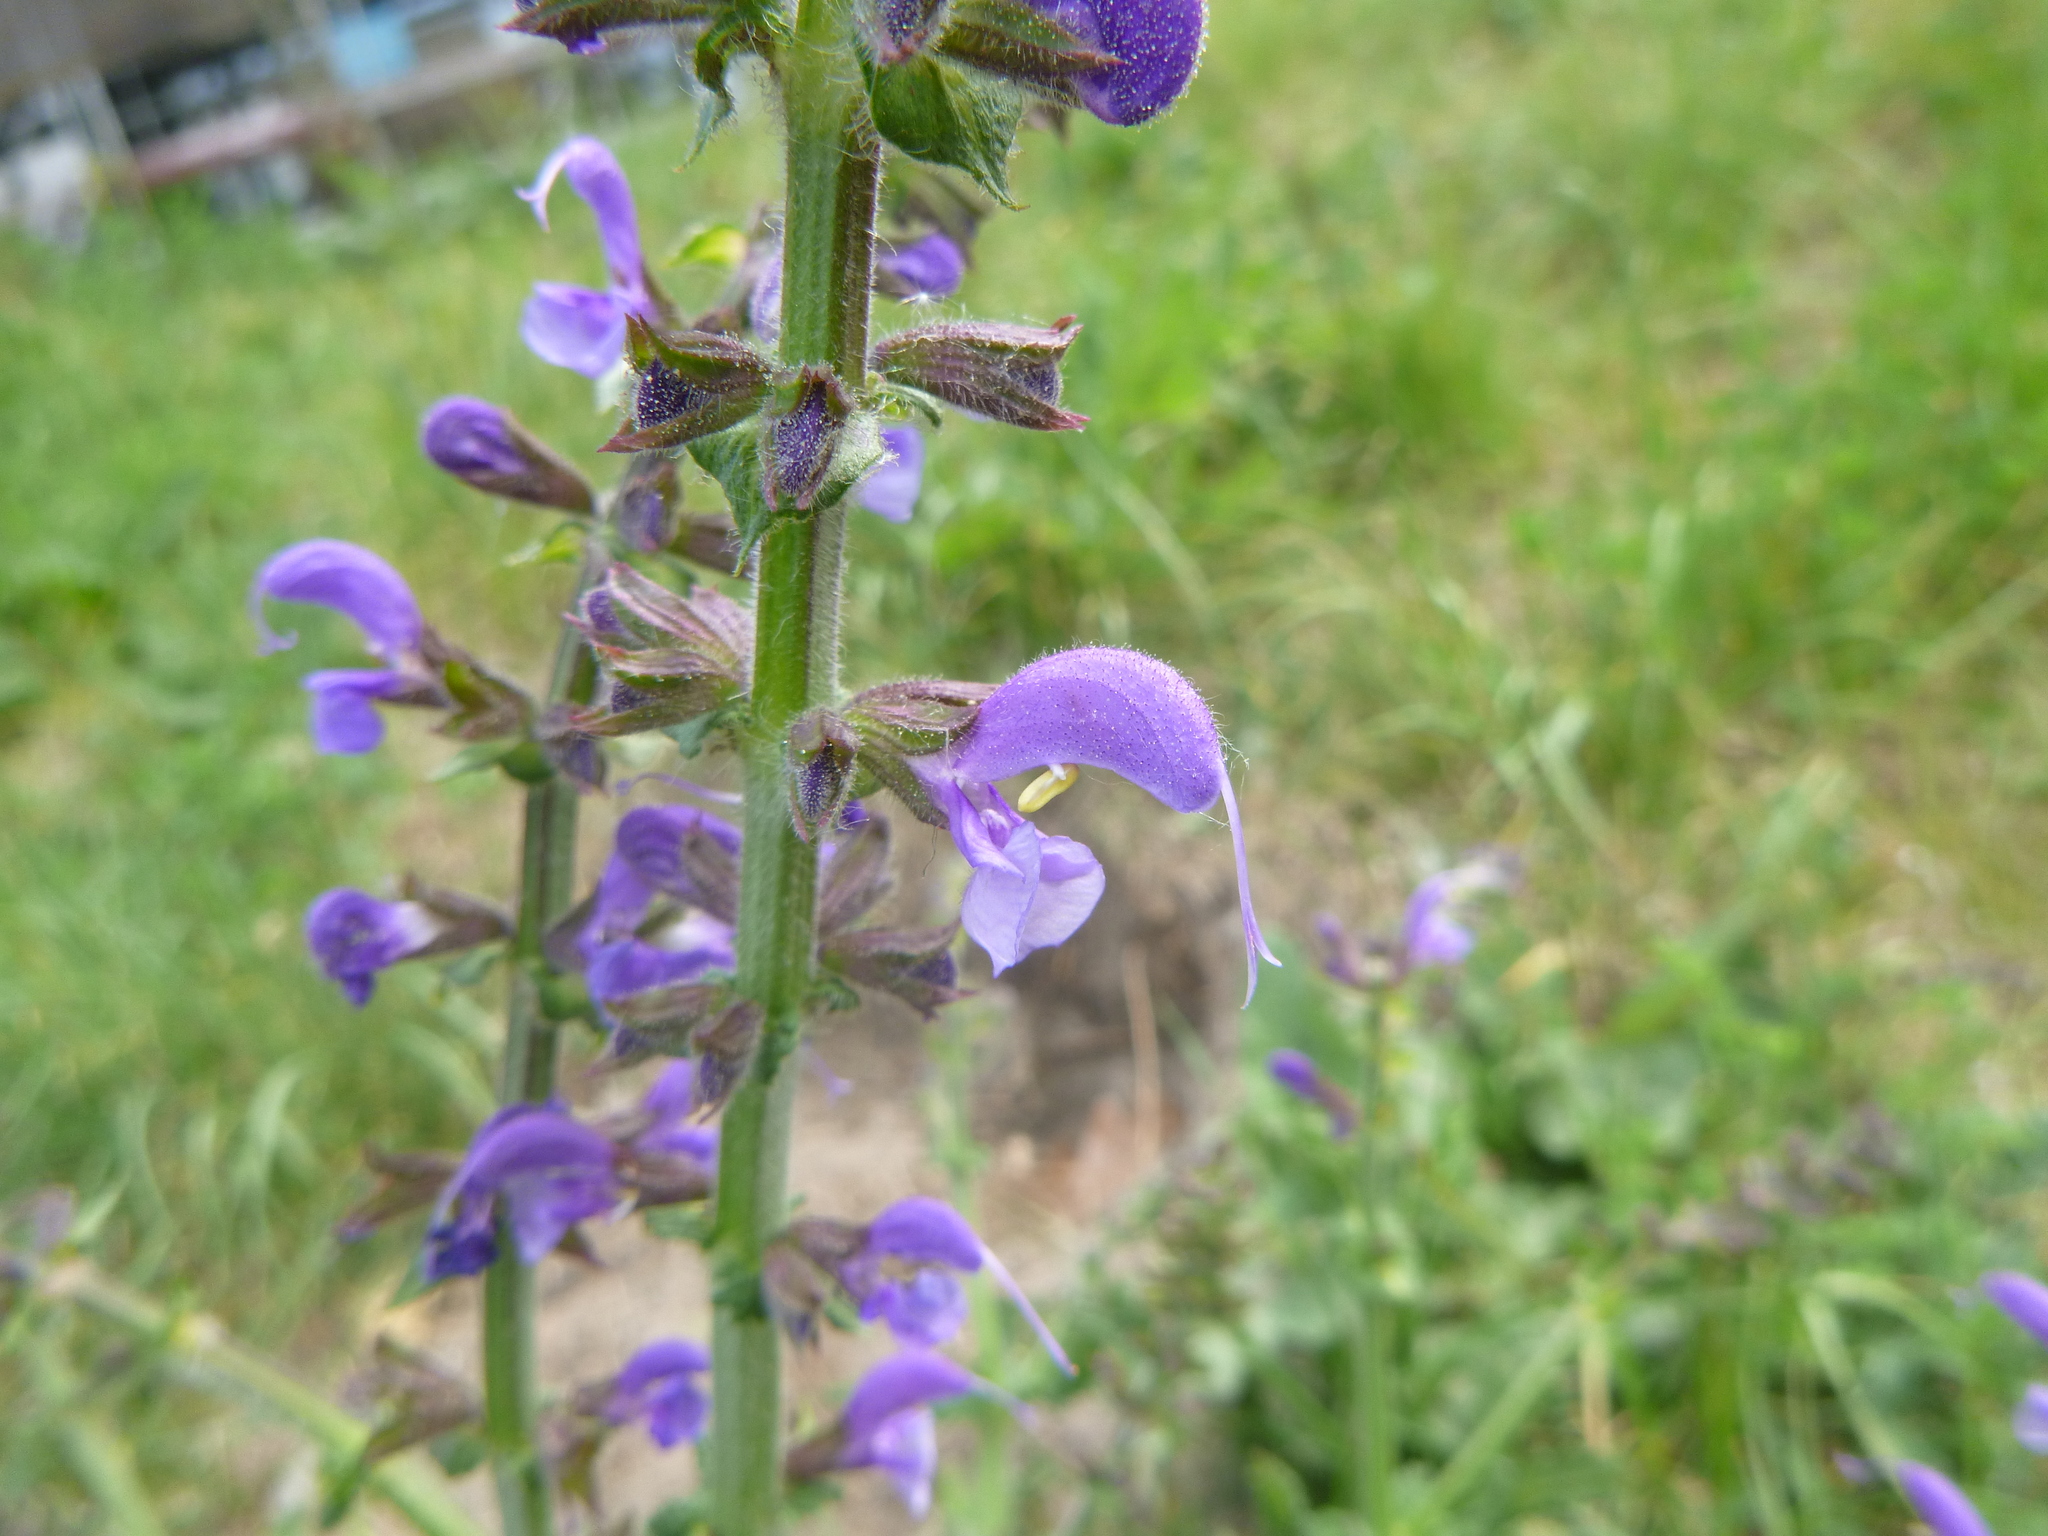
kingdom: Plantae
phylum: Tracheophyta
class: Magnoliopsida
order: Lamiales
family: Lamiaceae
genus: Salvia
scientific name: Salvia pratensis
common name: Meadow sage
